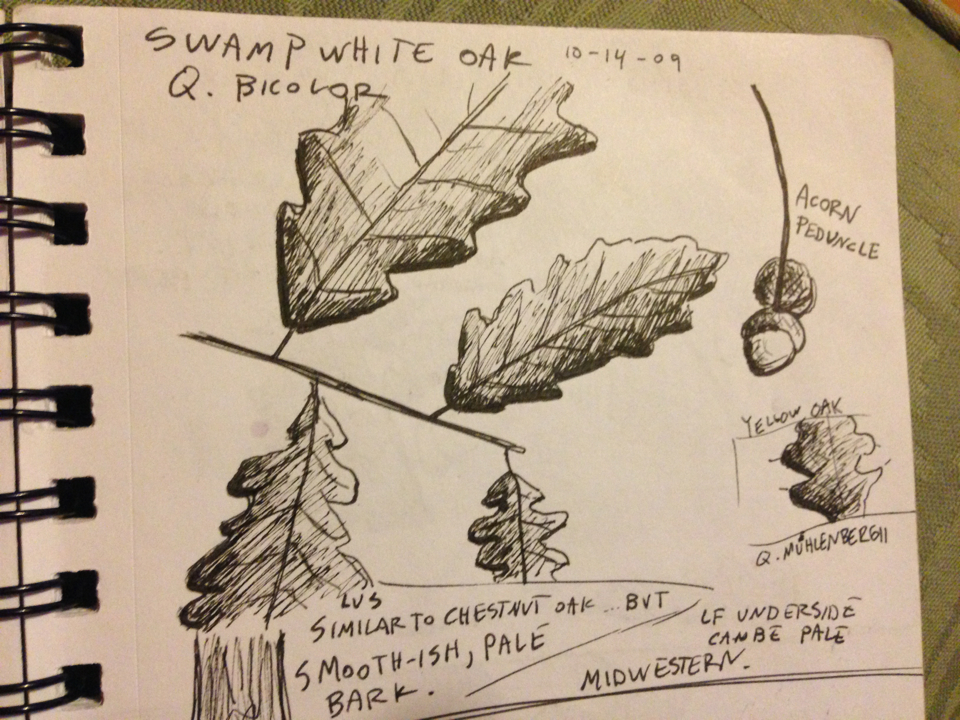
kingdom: Plantae
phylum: Tracheophyta
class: Magnoliopsida
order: Fagales
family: Fagaceae
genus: Quercus
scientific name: Quercus bicolor
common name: Swamp white oak
